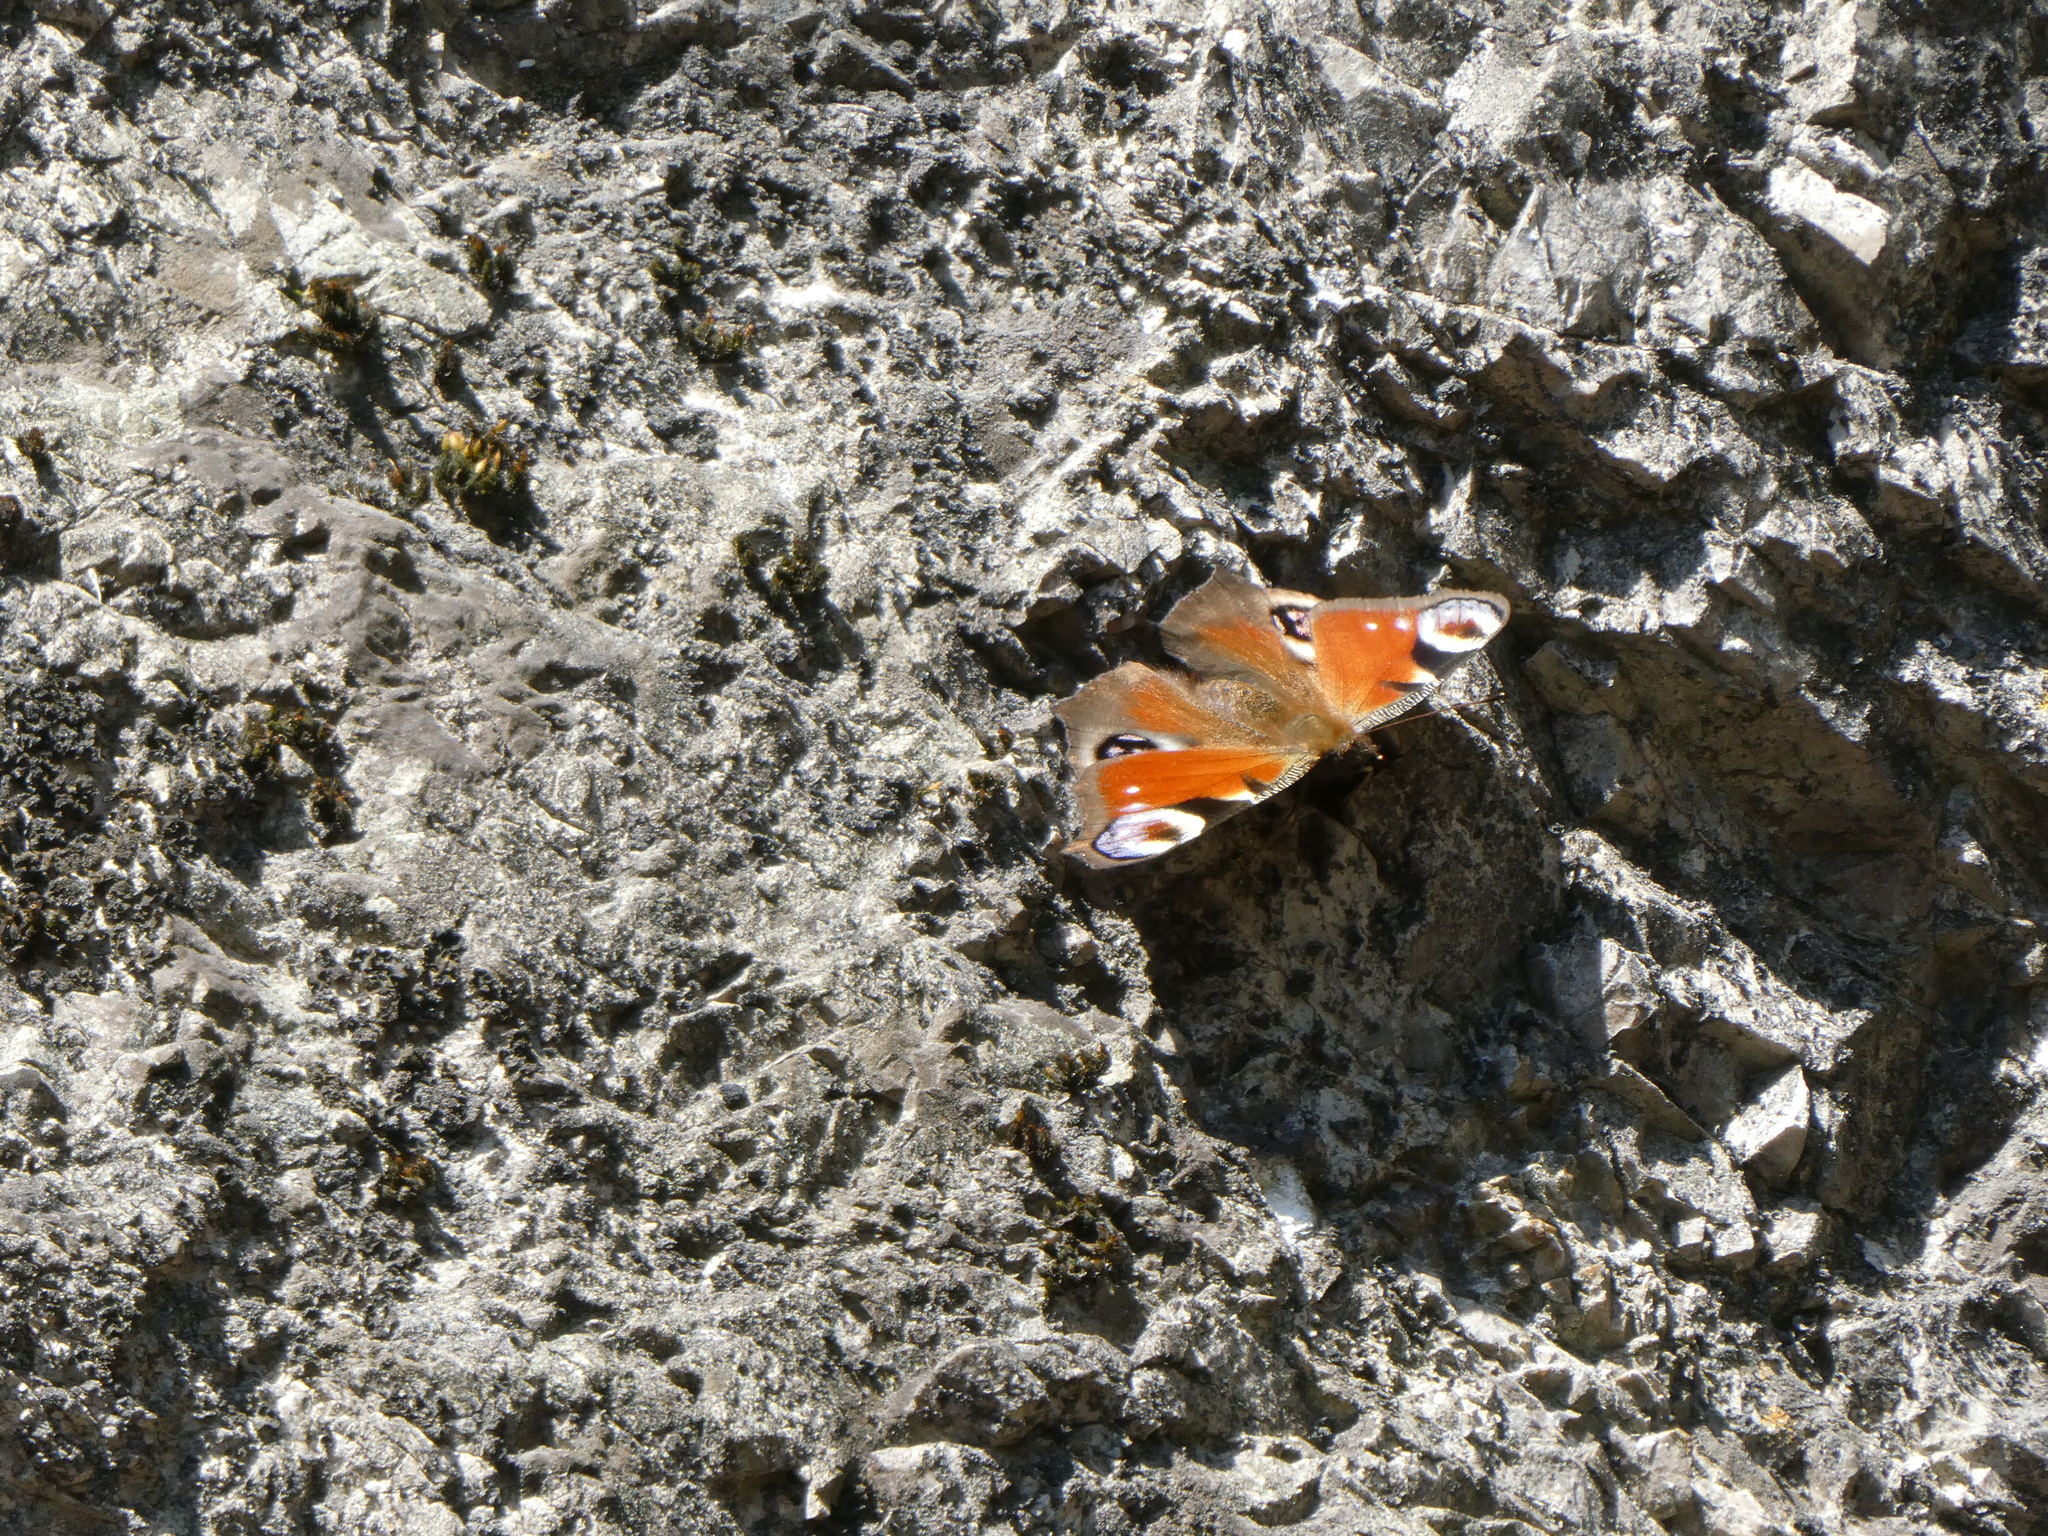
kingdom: Animalia
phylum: Arthropoda
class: Insecta
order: Lepidoptera
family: Nymphalidae
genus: Aglais
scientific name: Aglais io
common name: Peacock
